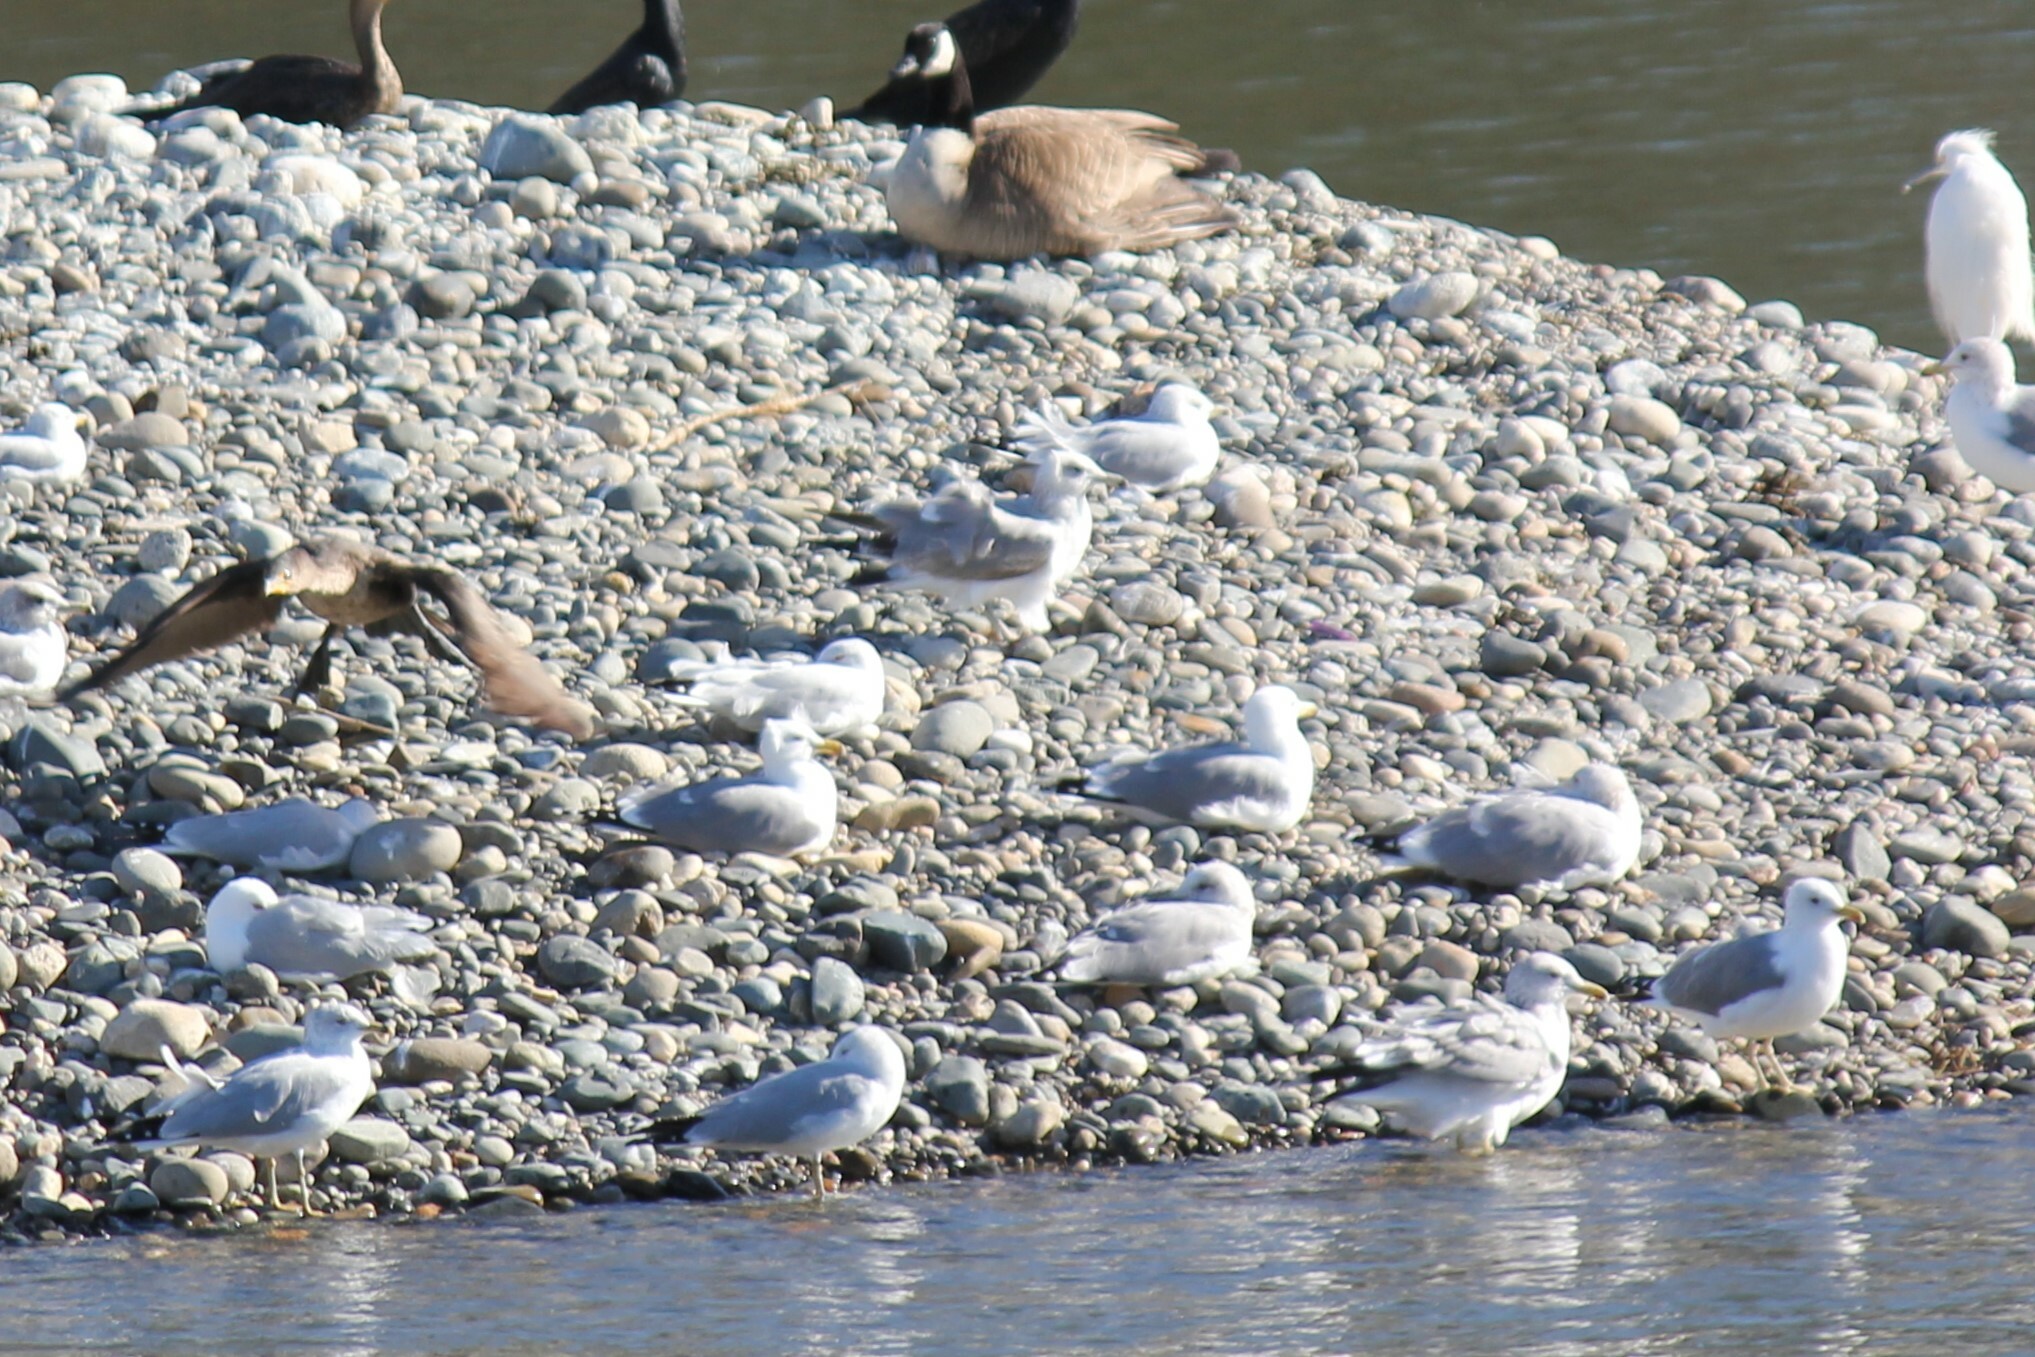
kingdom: Animalia
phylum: Chordata
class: Aves
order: Charadriiformes
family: Laridae
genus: Larus
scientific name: Larus californicus
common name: California gull
